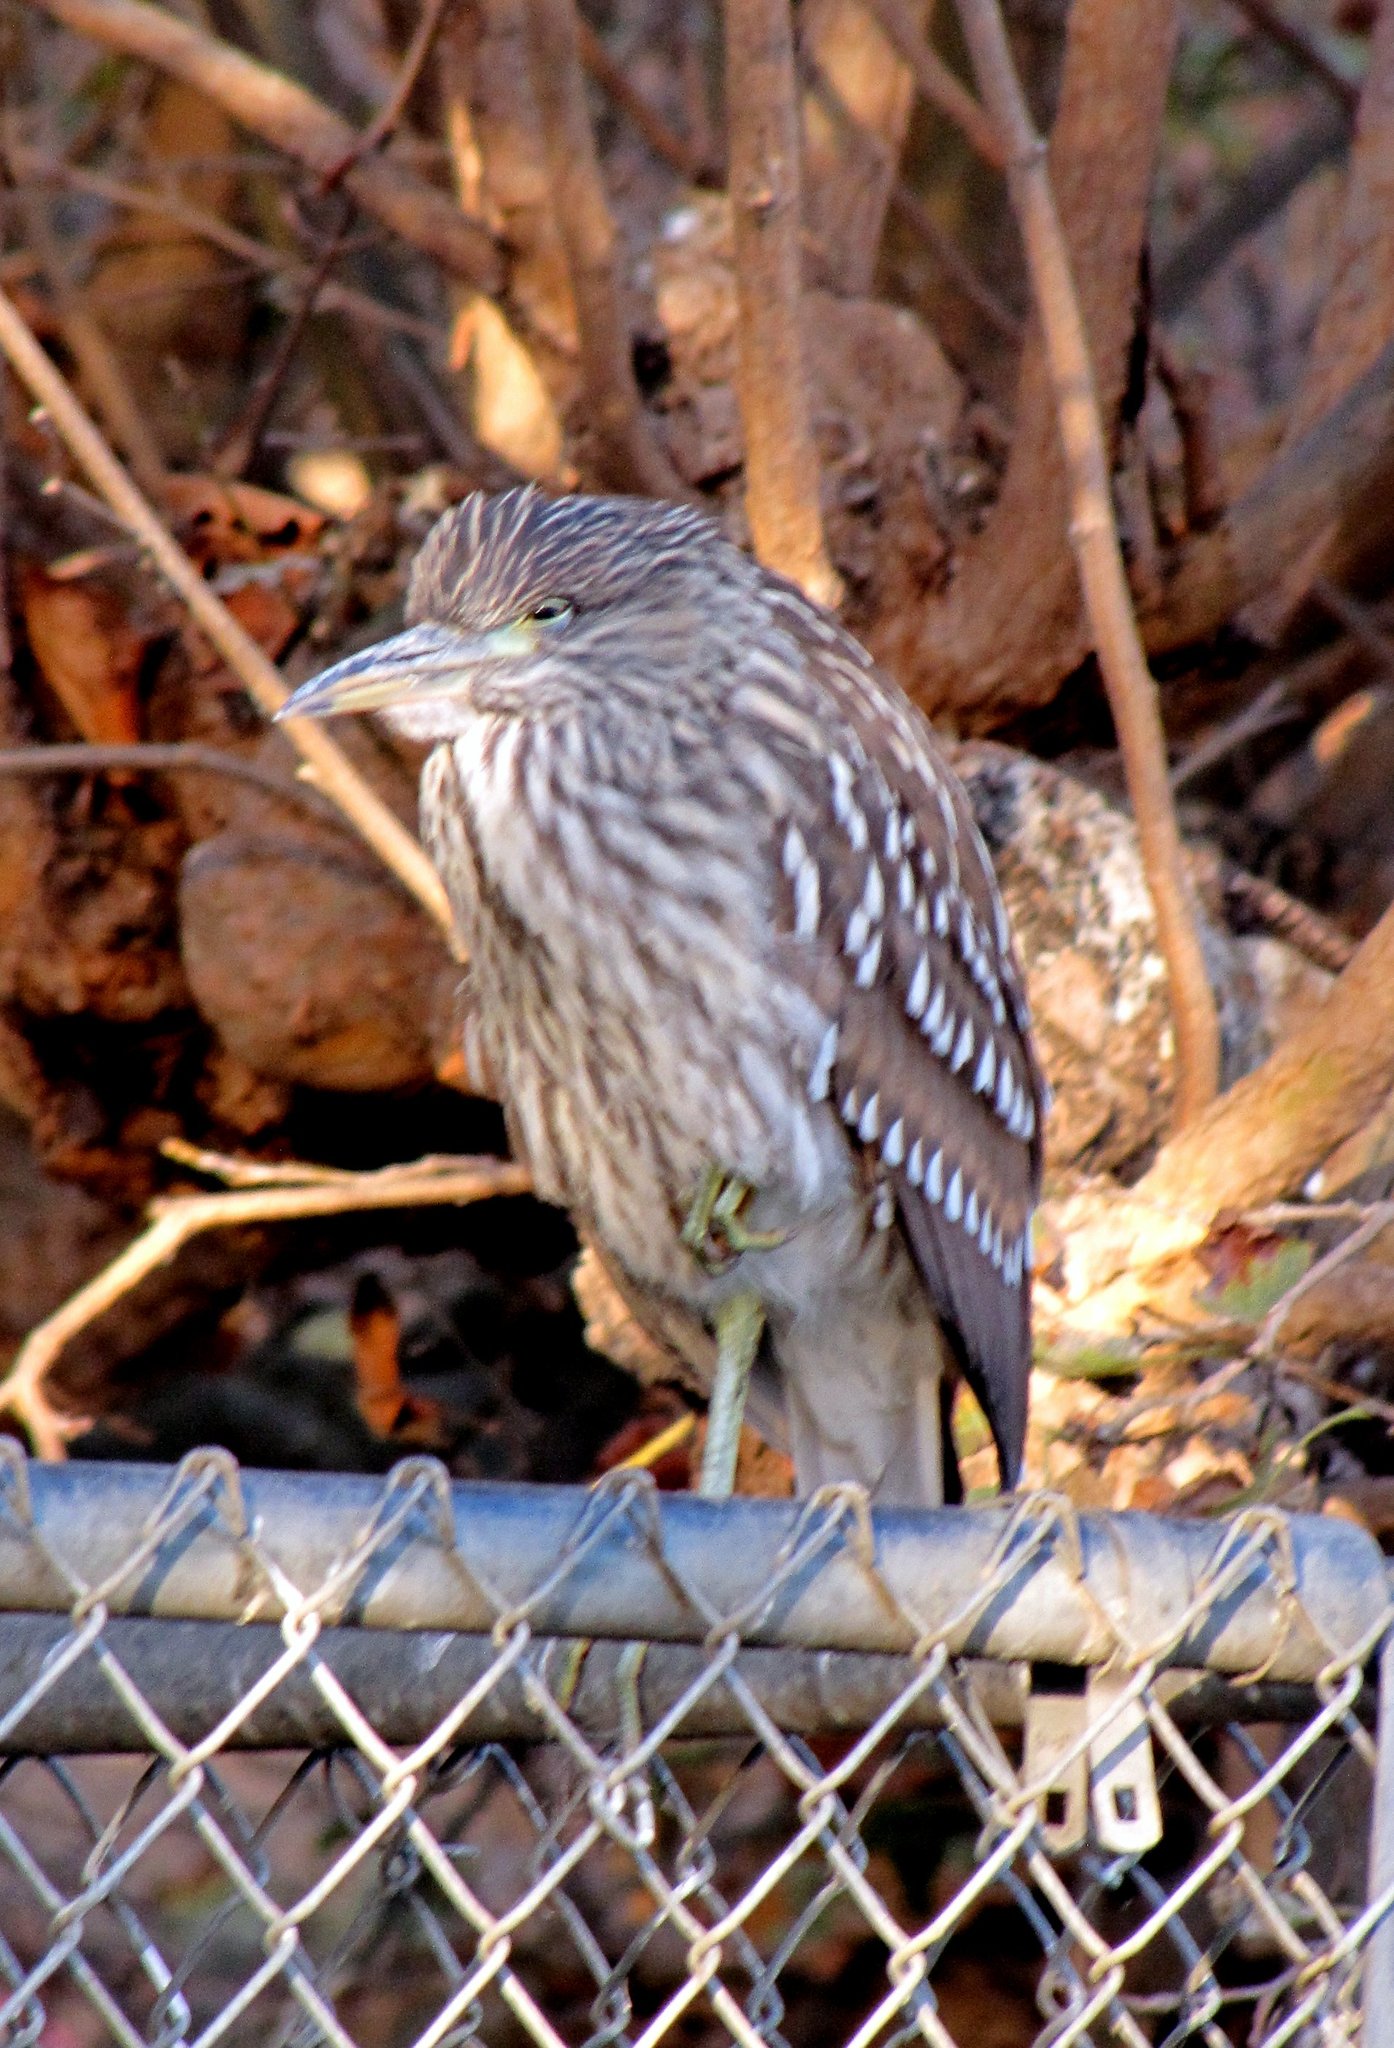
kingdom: Animalia
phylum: Chordata
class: Aves
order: Pelecaniformes
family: Ardeidae
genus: Nycticorax
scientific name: Nycticorax nycticorax
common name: Black-crowned night heron
